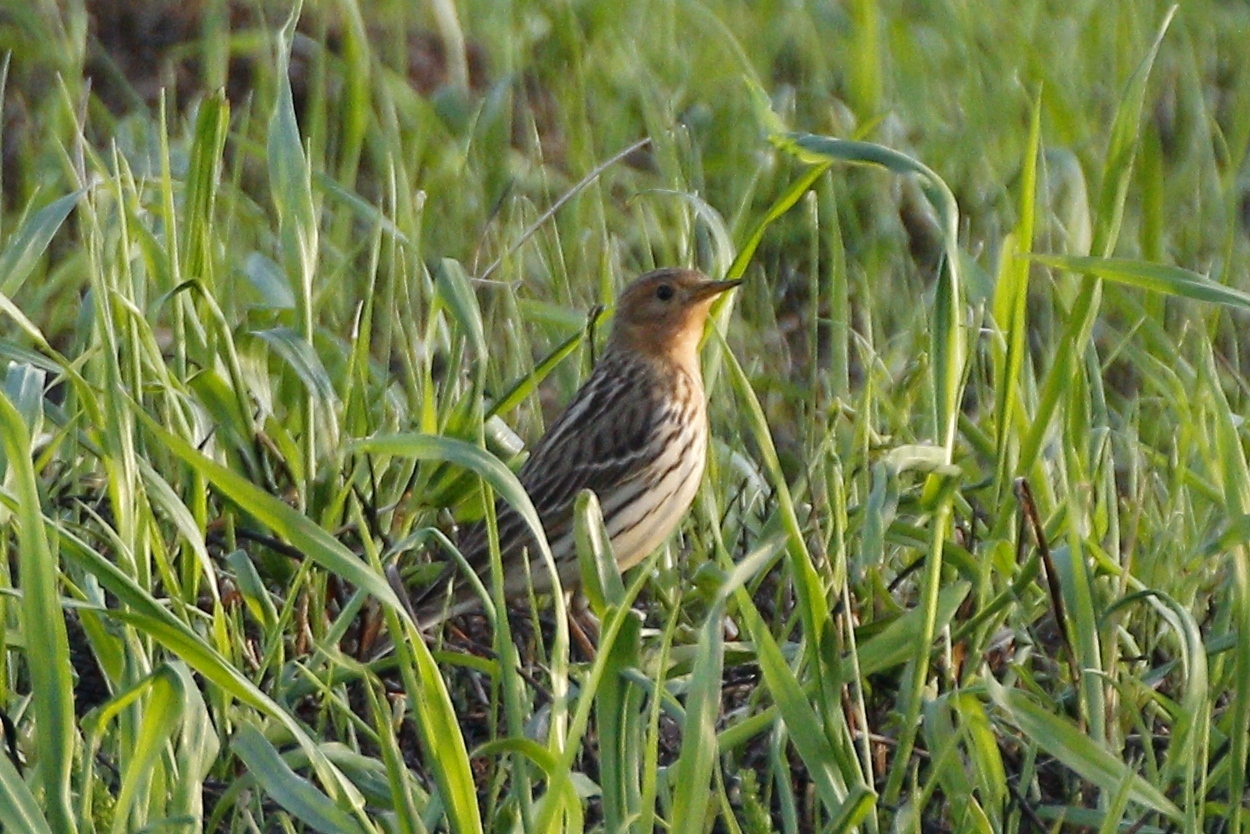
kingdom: Animalia
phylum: Chordata
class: Aves
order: Passeriformes
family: Motacillidae
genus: Anthus
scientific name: Anthus cervinus
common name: Red-throated pipit
